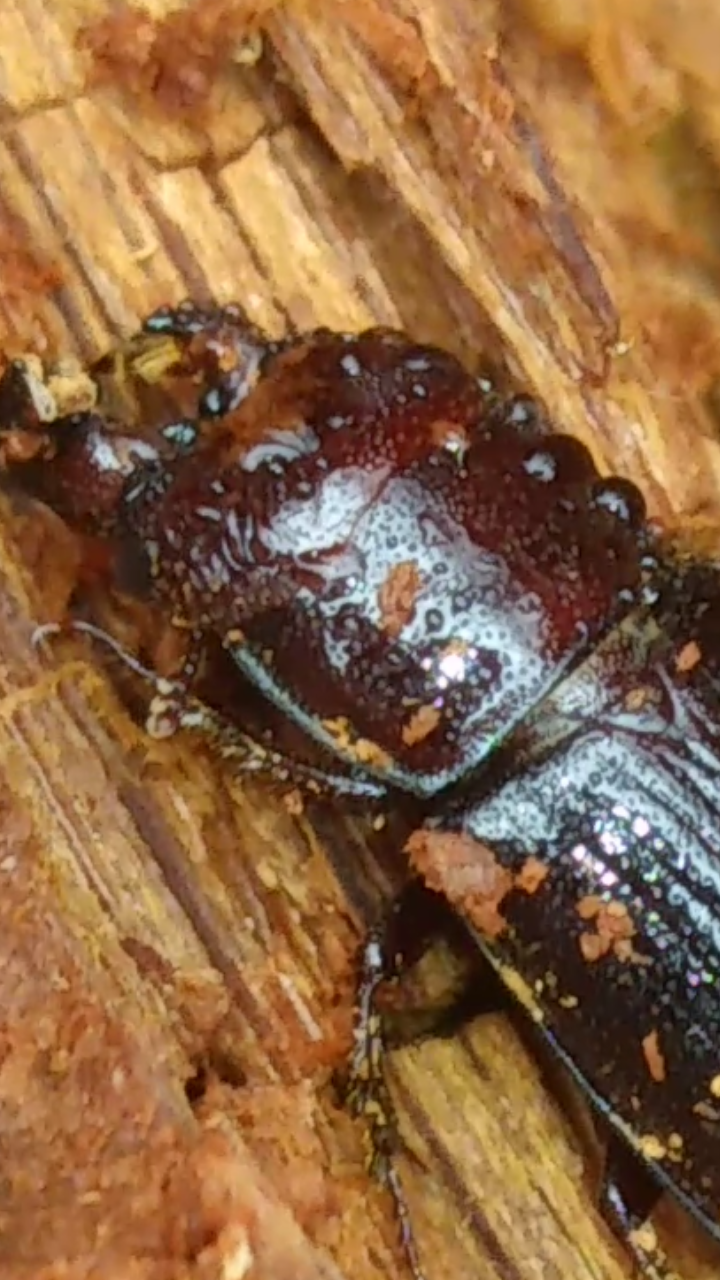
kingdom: Animalia
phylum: Arthropoda
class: Insecta
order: Coleoptera
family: Lucanidae
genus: Ceruchus
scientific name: Ceruchus piceus
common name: Red-rot decay stag beetle
